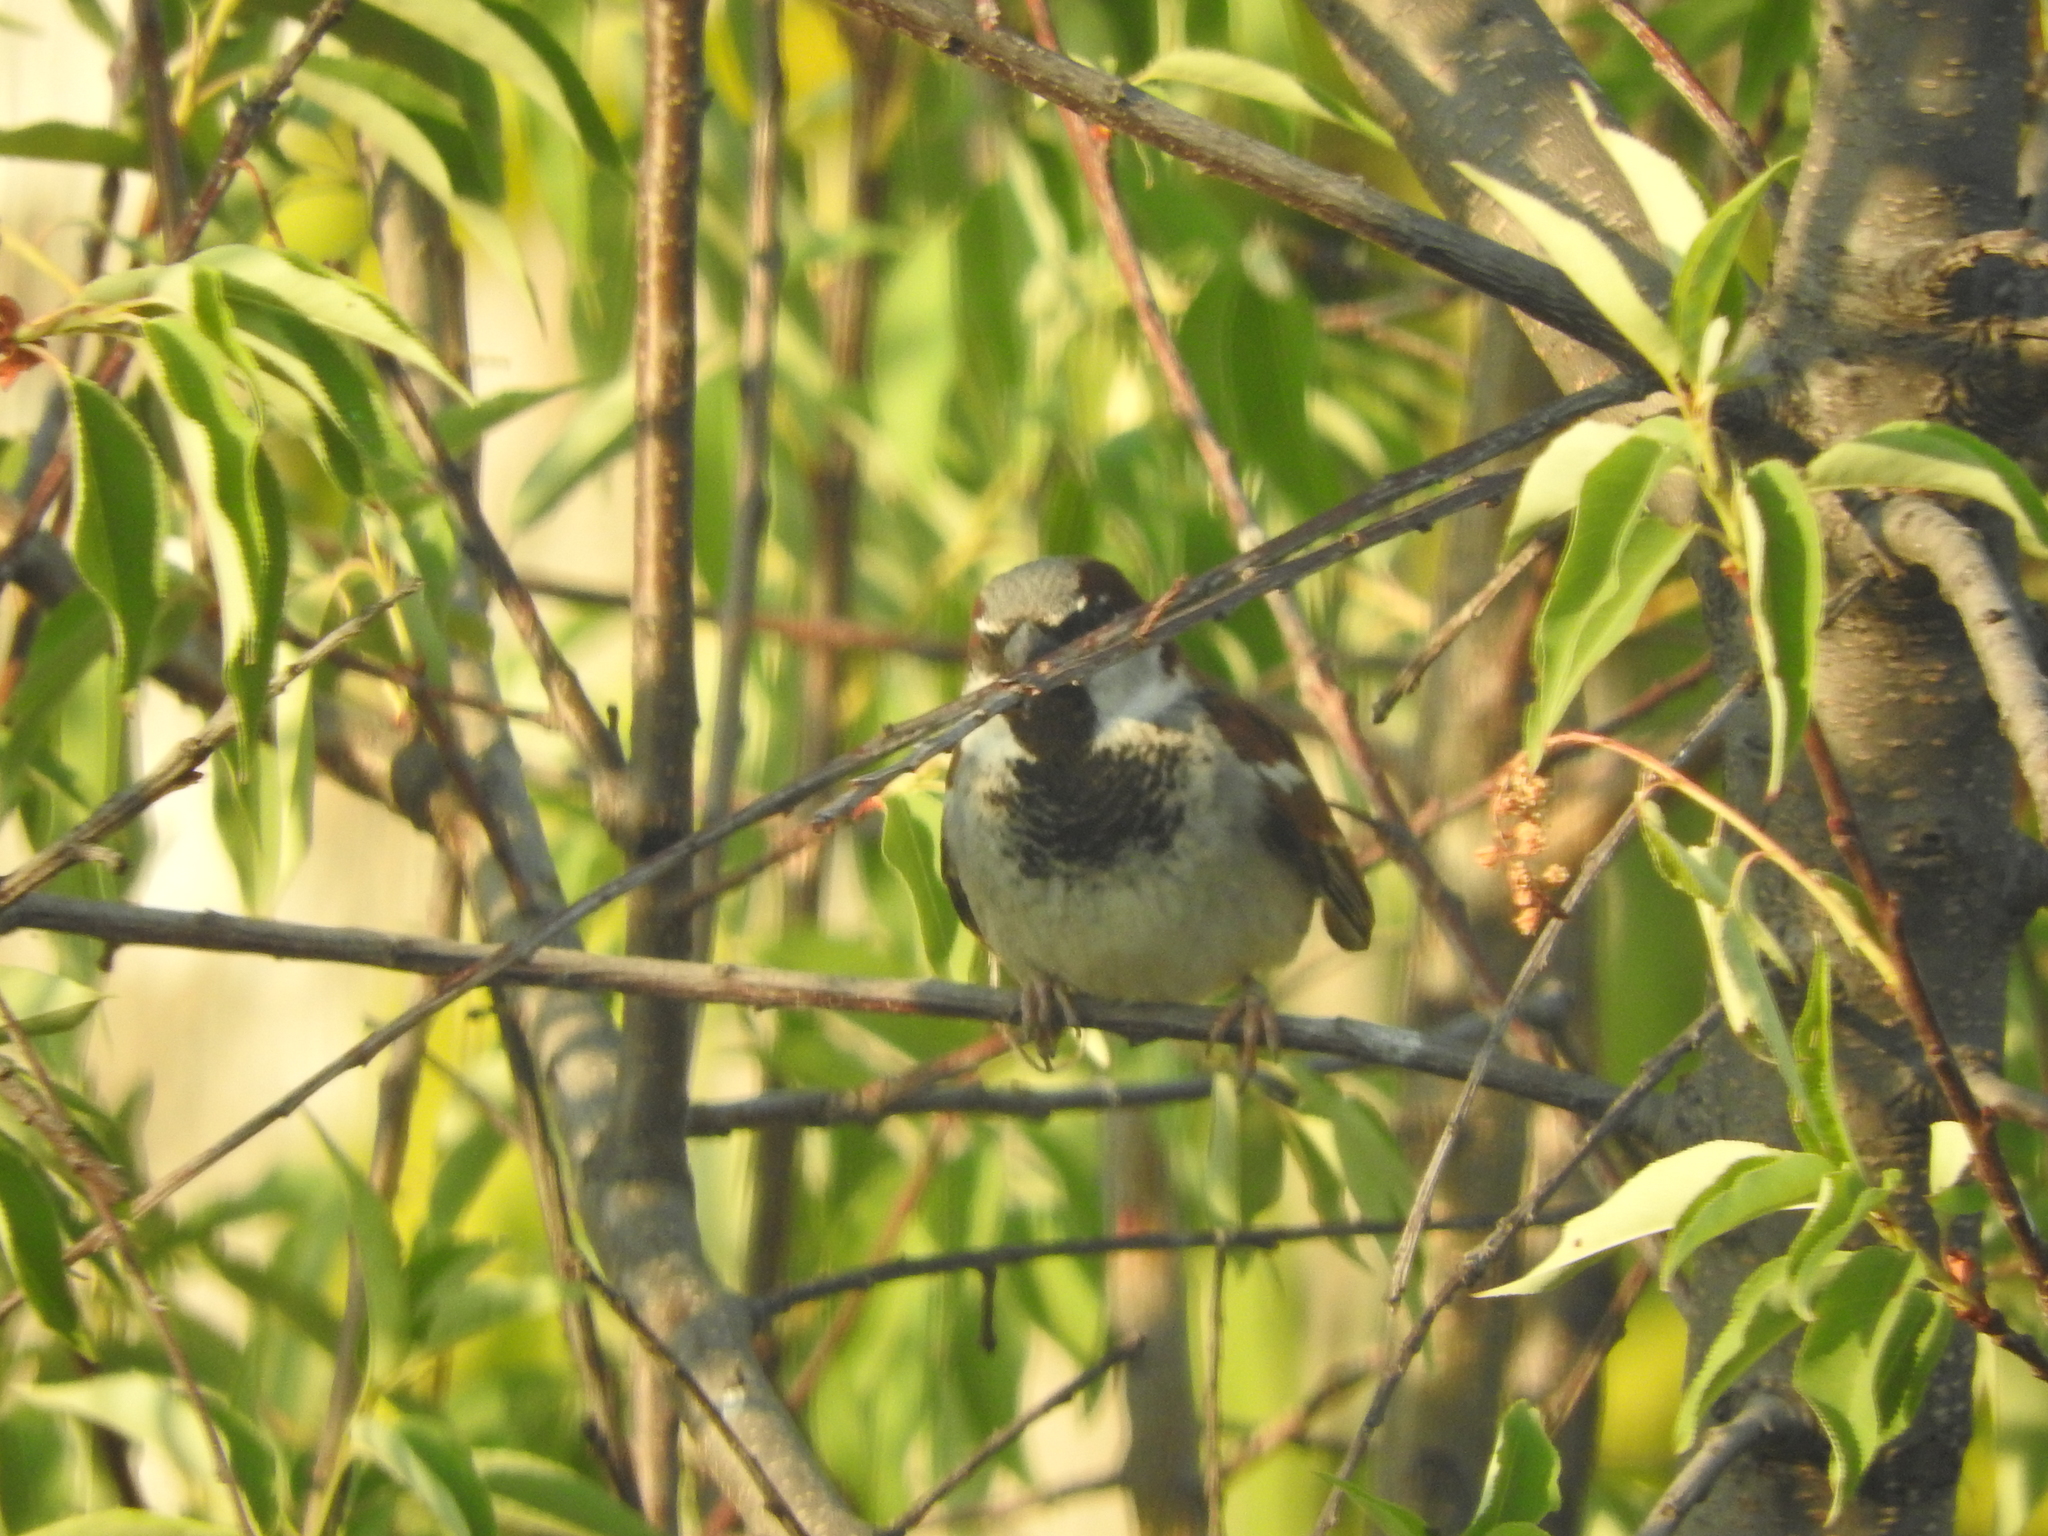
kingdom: Animalia
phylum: Chordata
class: Aves
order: Passeriformes
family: Passeridae
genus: Passer
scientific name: Passer domesticus
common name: House sparrow
